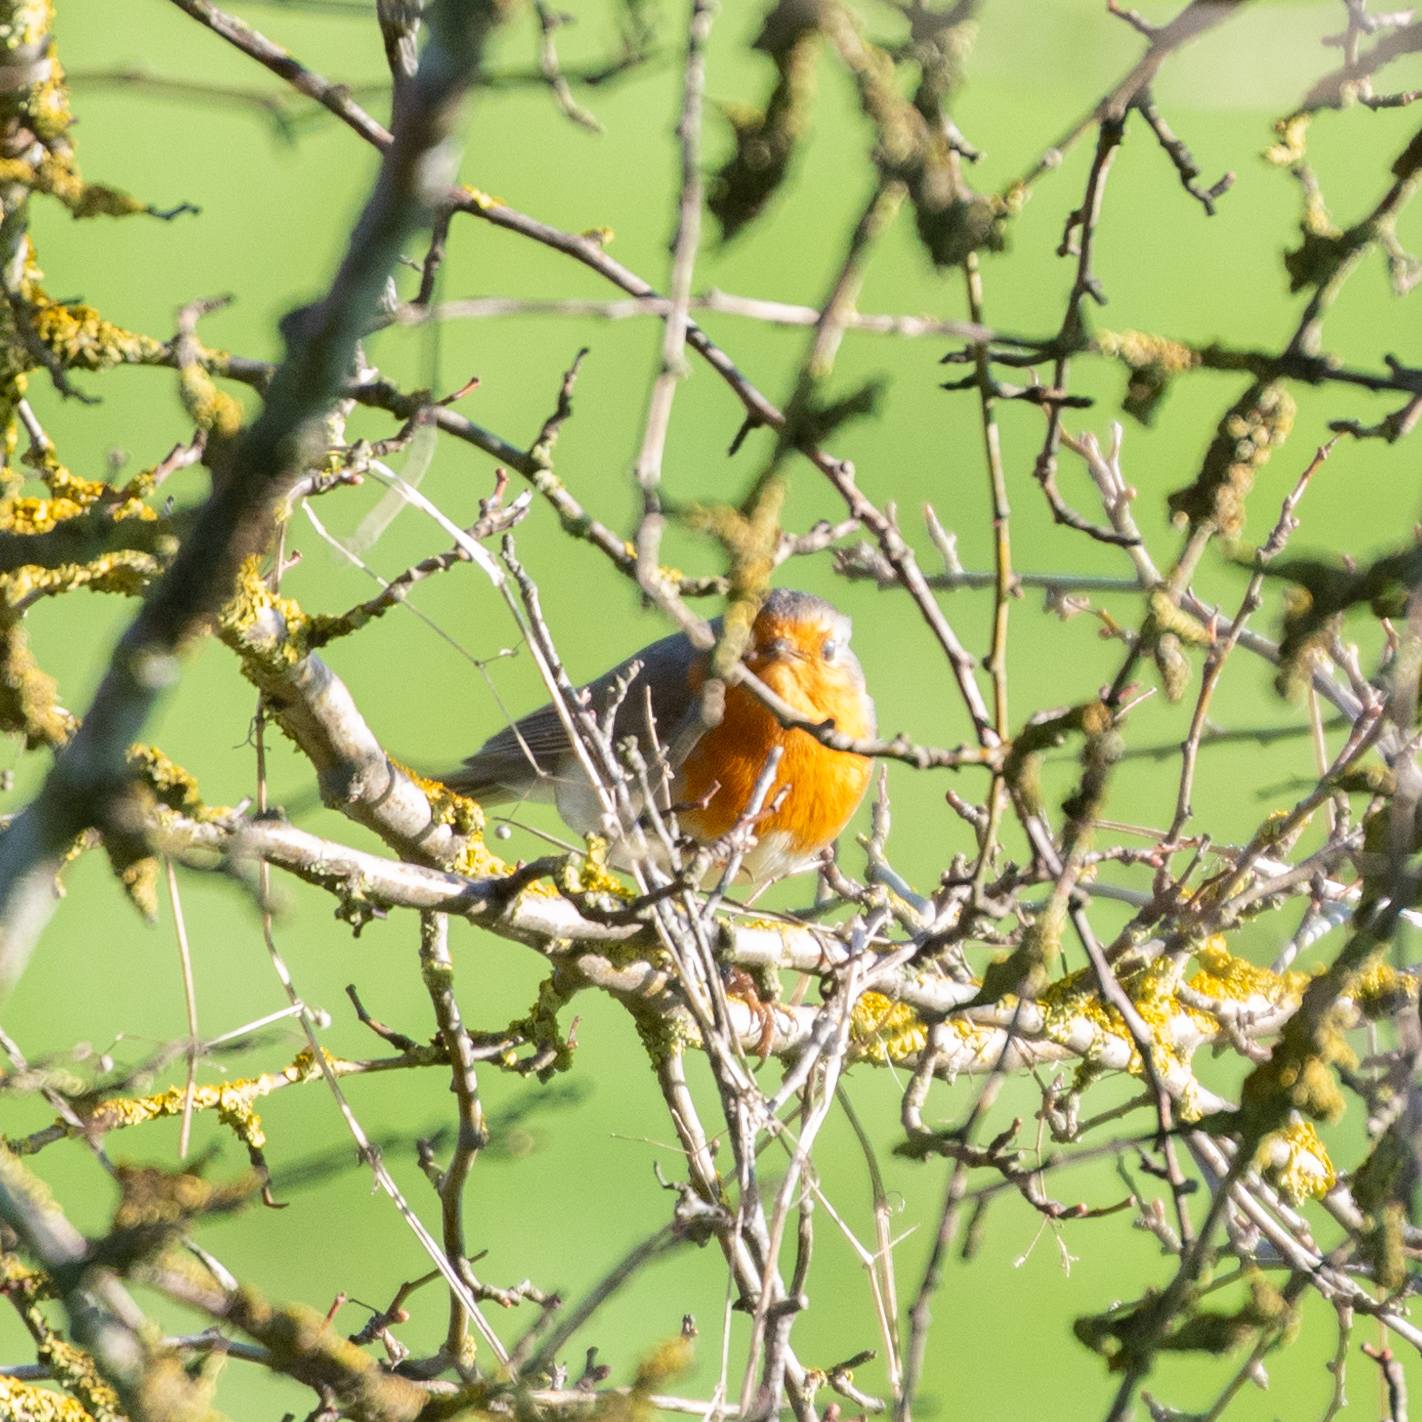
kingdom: Animalia
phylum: Chordata
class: Aves
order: Passeriformes
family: Muscicapidae
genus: Erithacus
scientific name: Erithacus rubecula
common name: European robin
